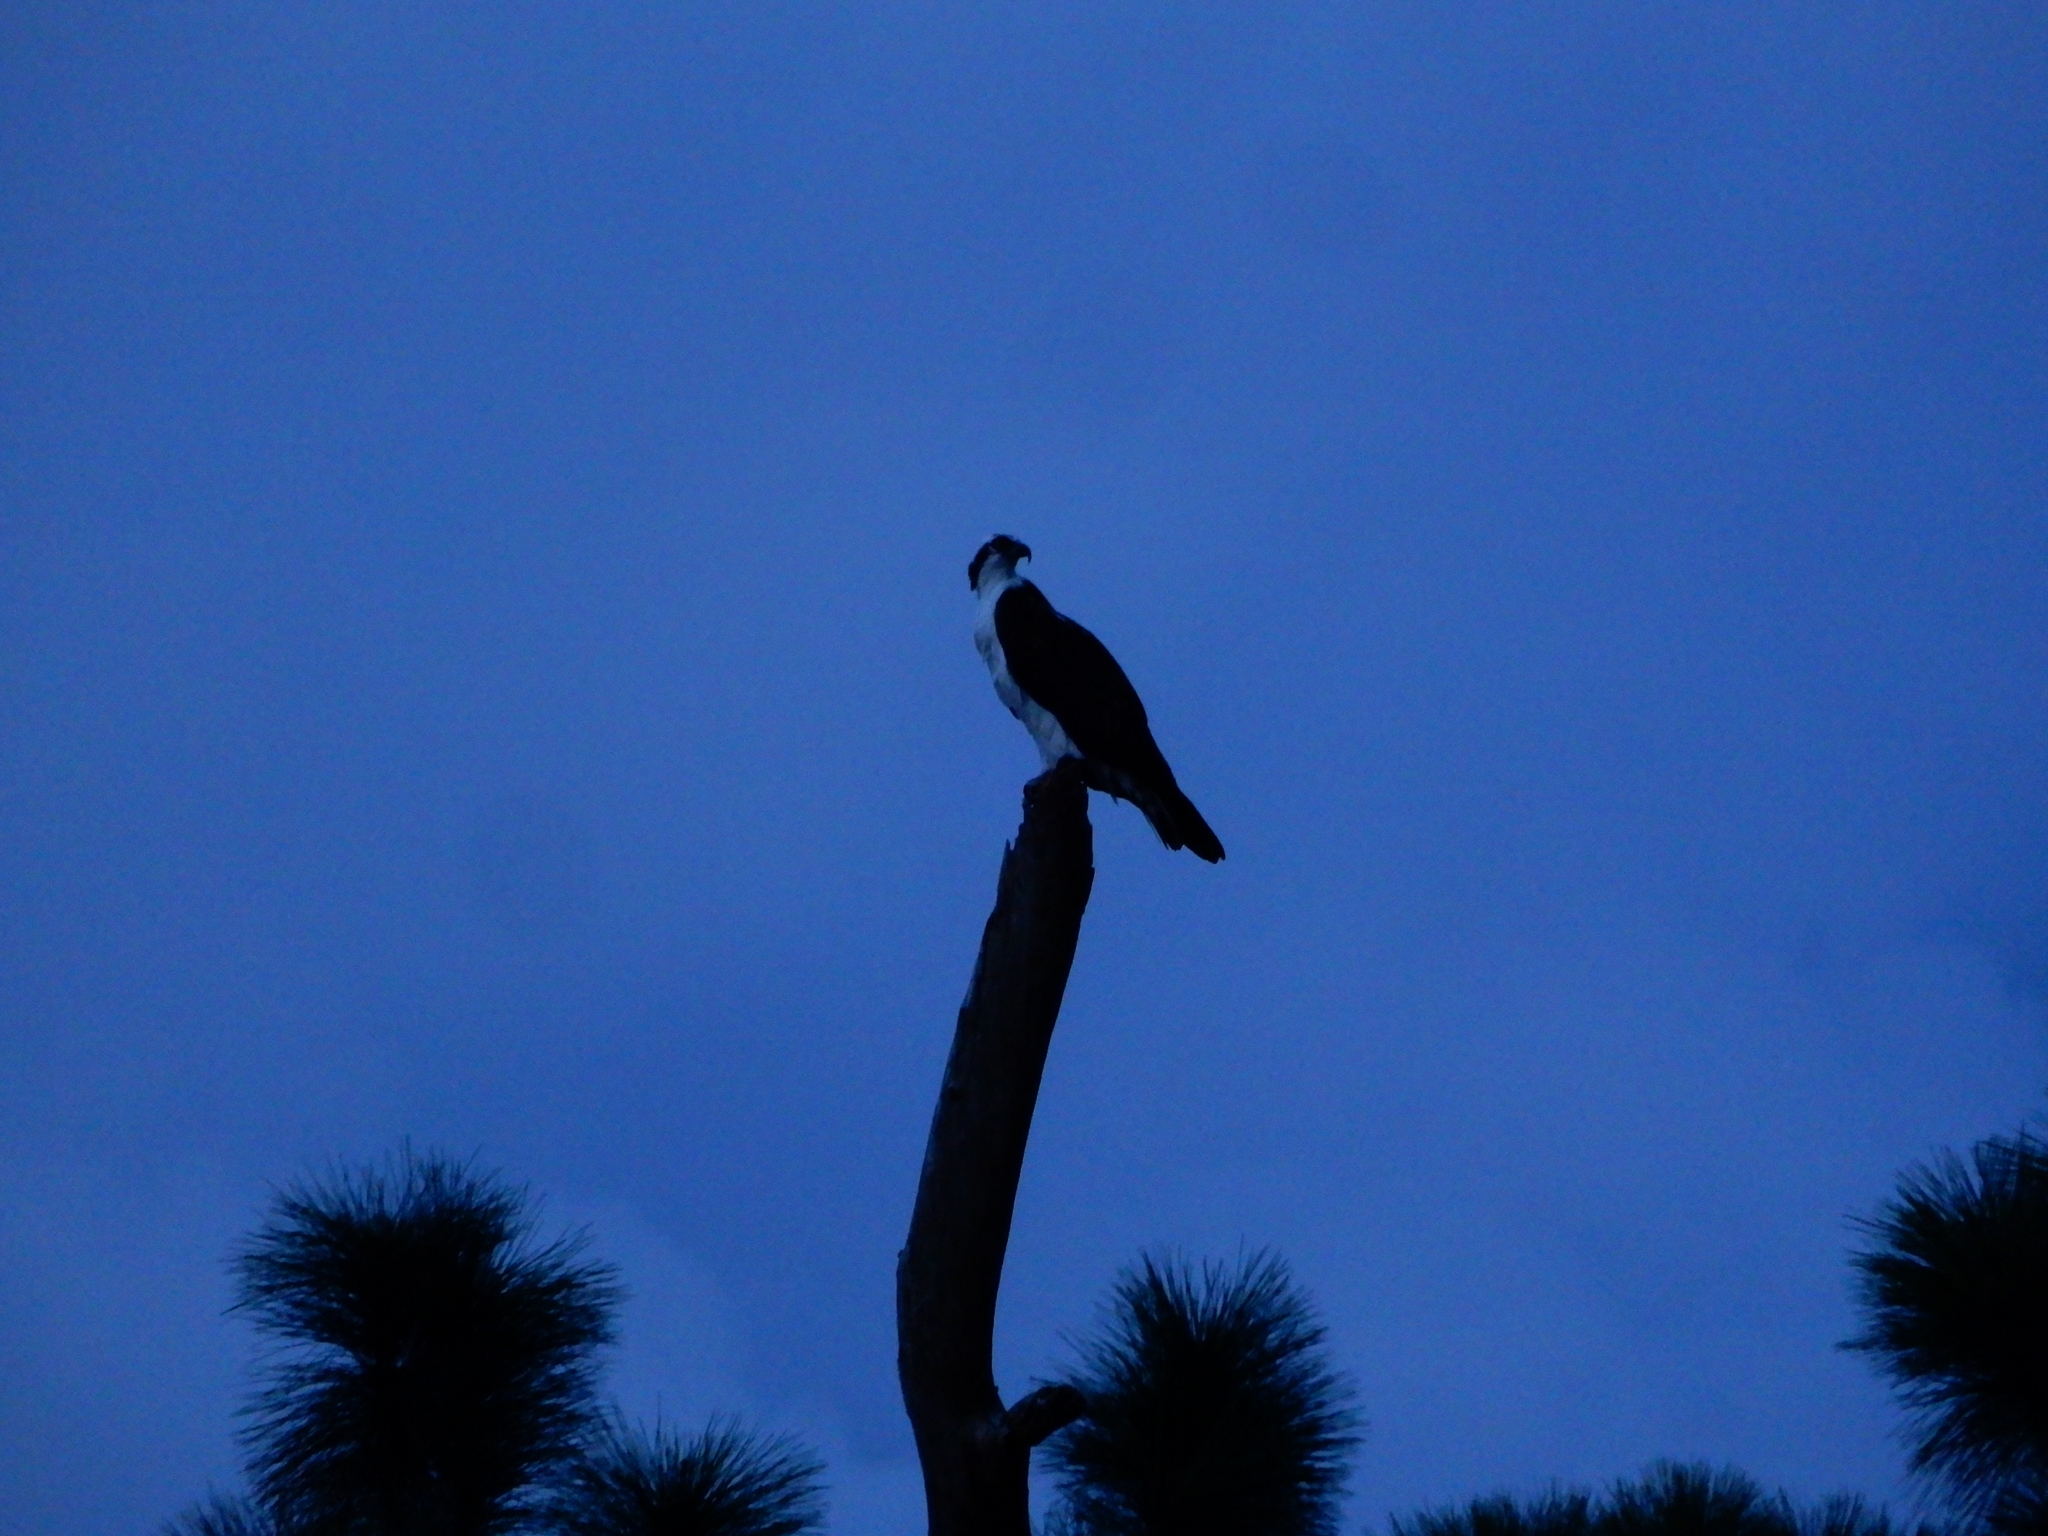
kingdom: Animalia
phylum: Chordata
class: Aves
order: Accipitriformes
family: Pandionidae
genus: Pandion
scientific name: Pandion haliaetus
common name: Osprey
